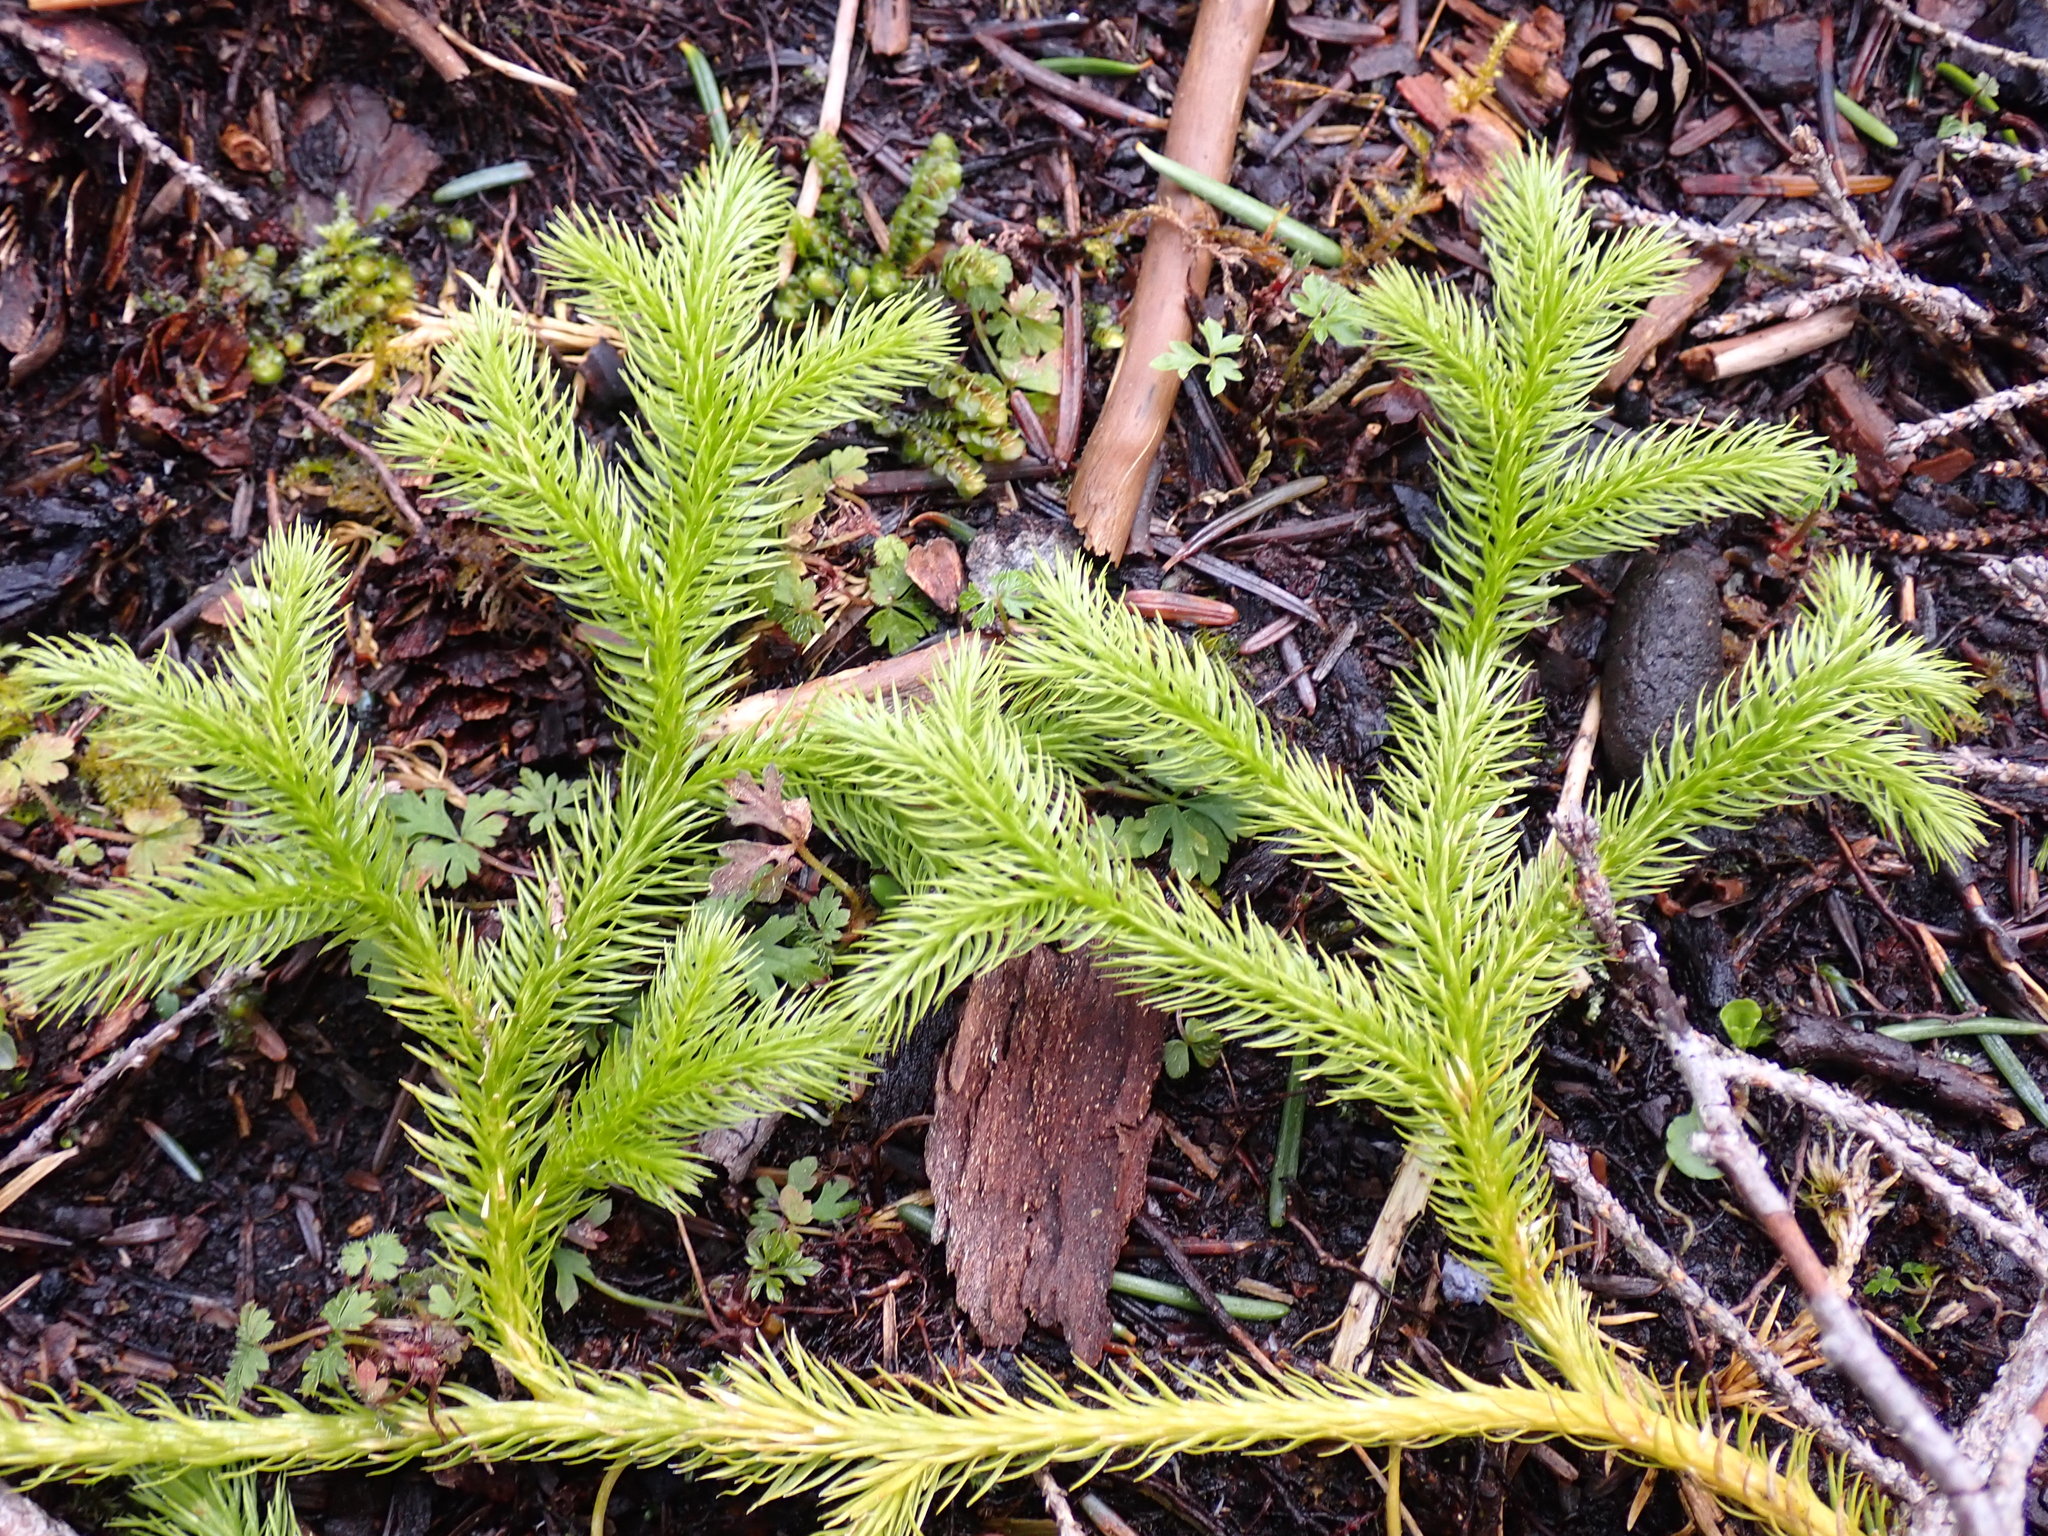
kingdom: Plantae
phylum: Tracheophyta
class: Lycopodiopsida
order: Lycopodiales
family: Lycopodiaceae
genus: Lycopodium
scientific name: Lycopodium clavatum
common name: Stag's-horn clubmoss
